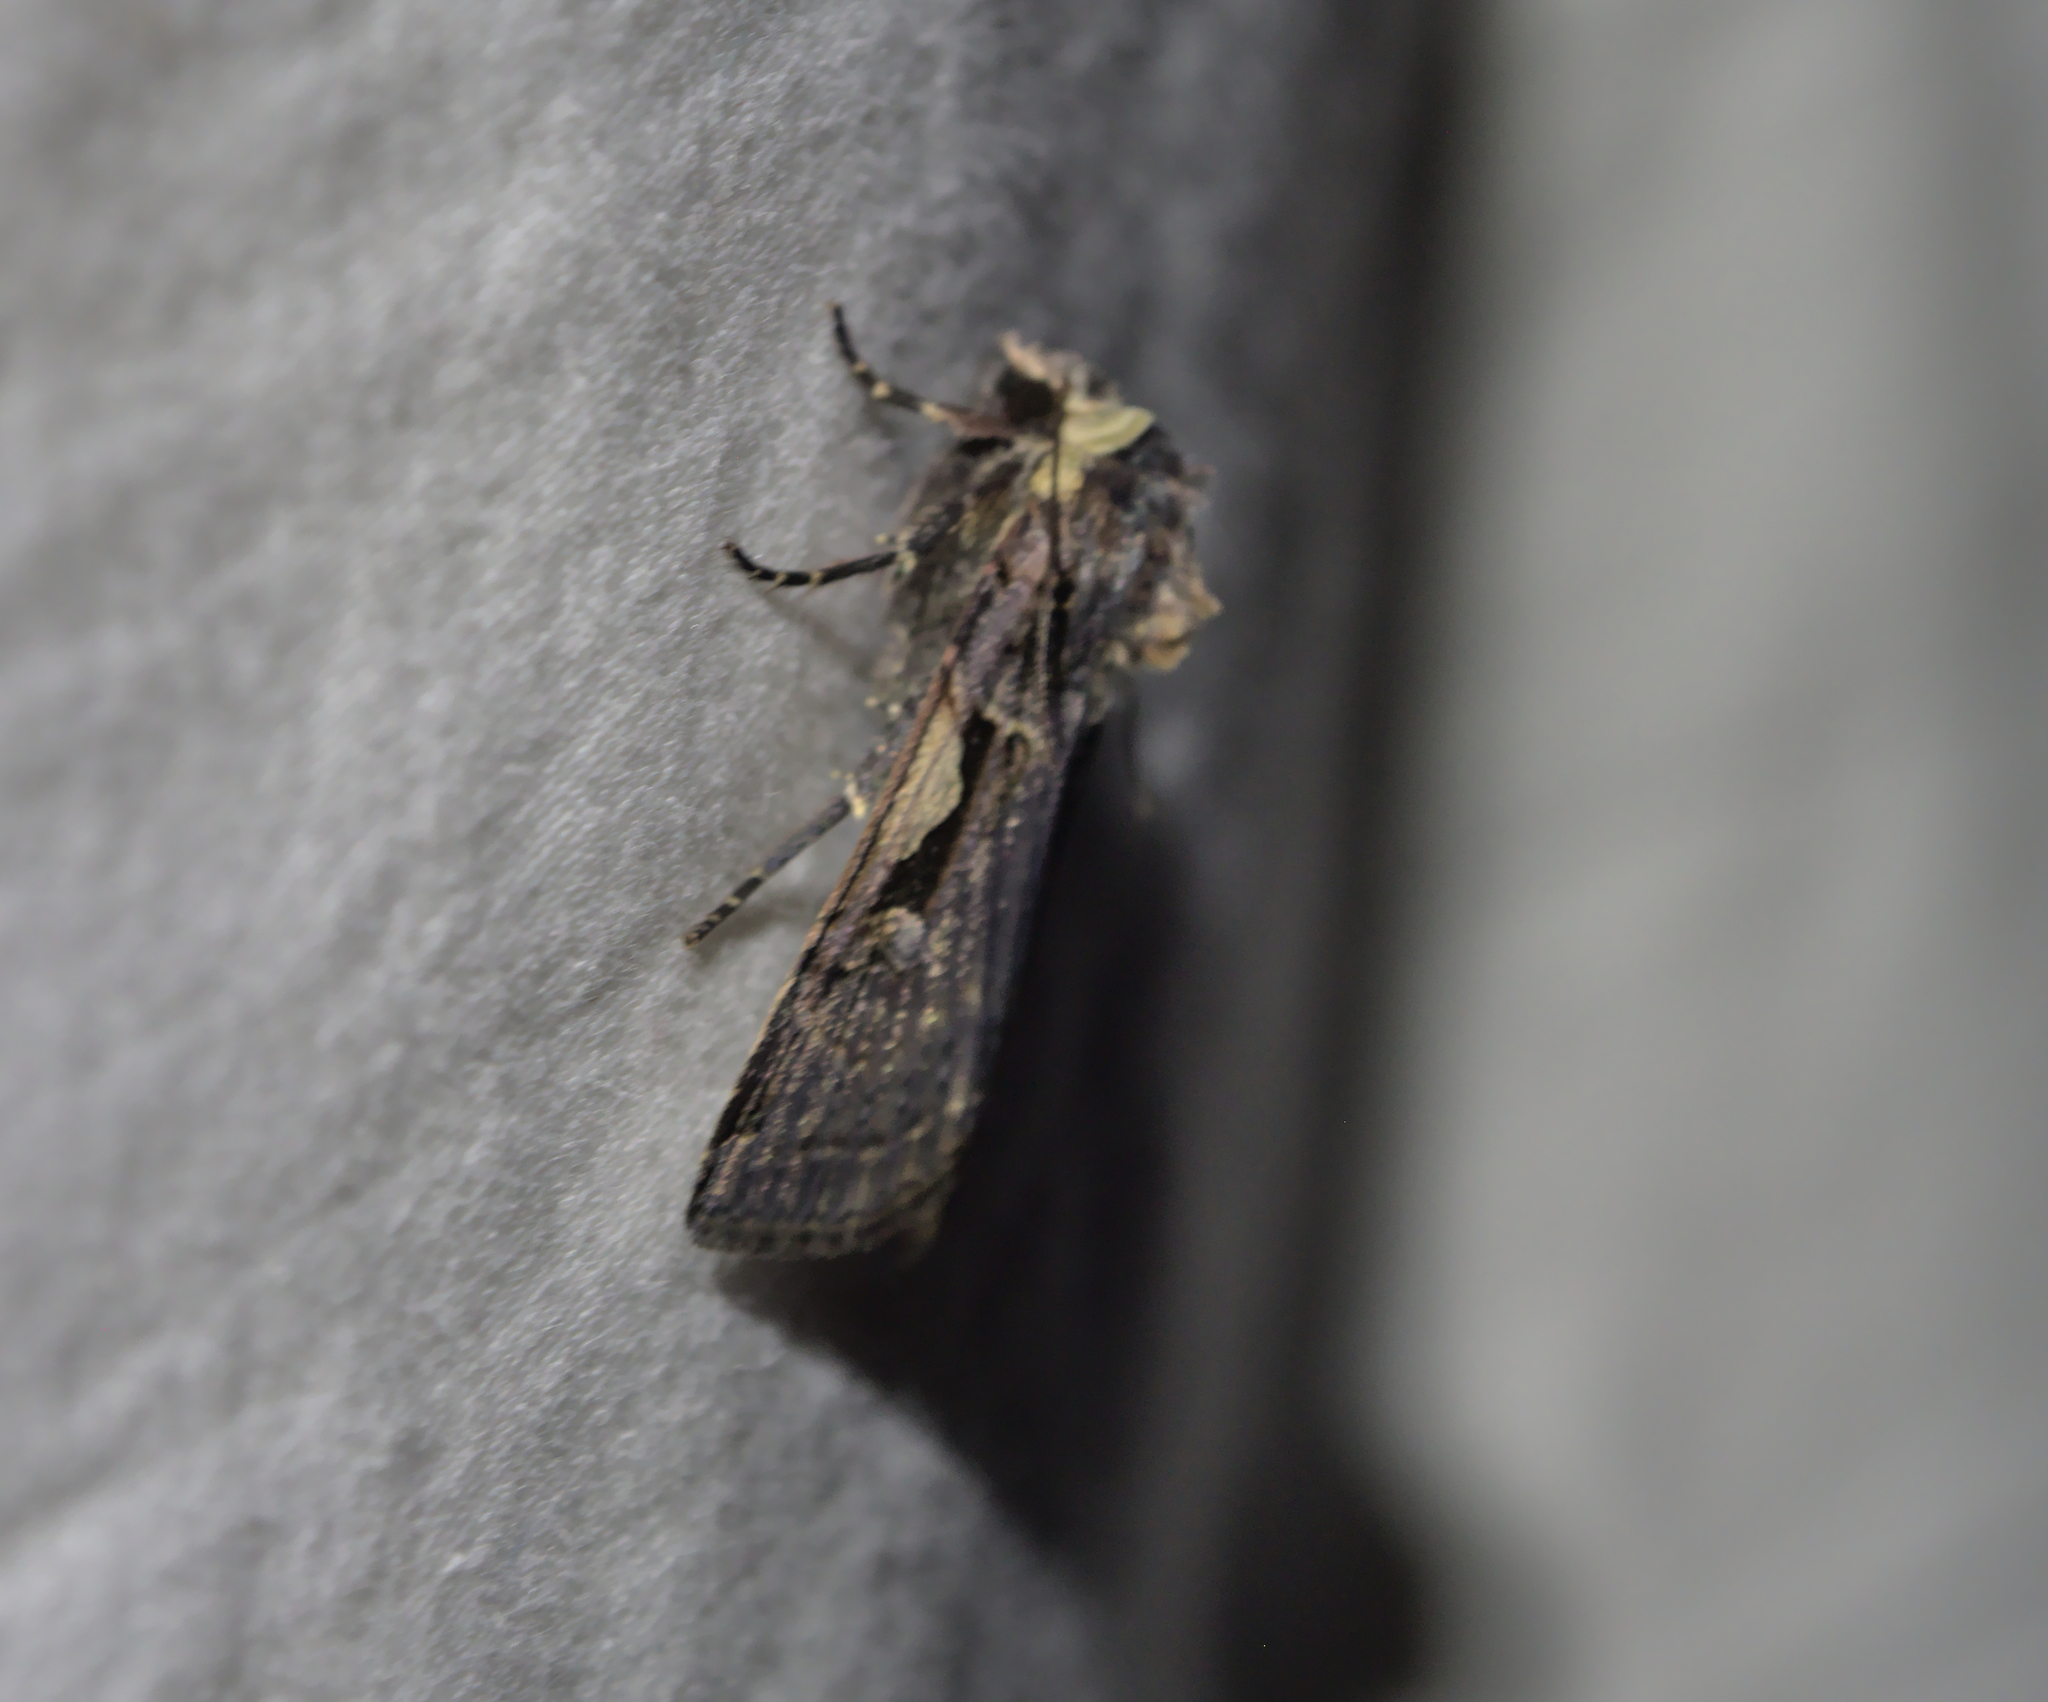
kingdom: Animalia
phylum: Arthropoda
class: Insecta
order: Lepidoptera
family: Noctuidae
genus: Xestia
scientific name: Xestia c-nigrum
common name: Setaceous hebrew character
